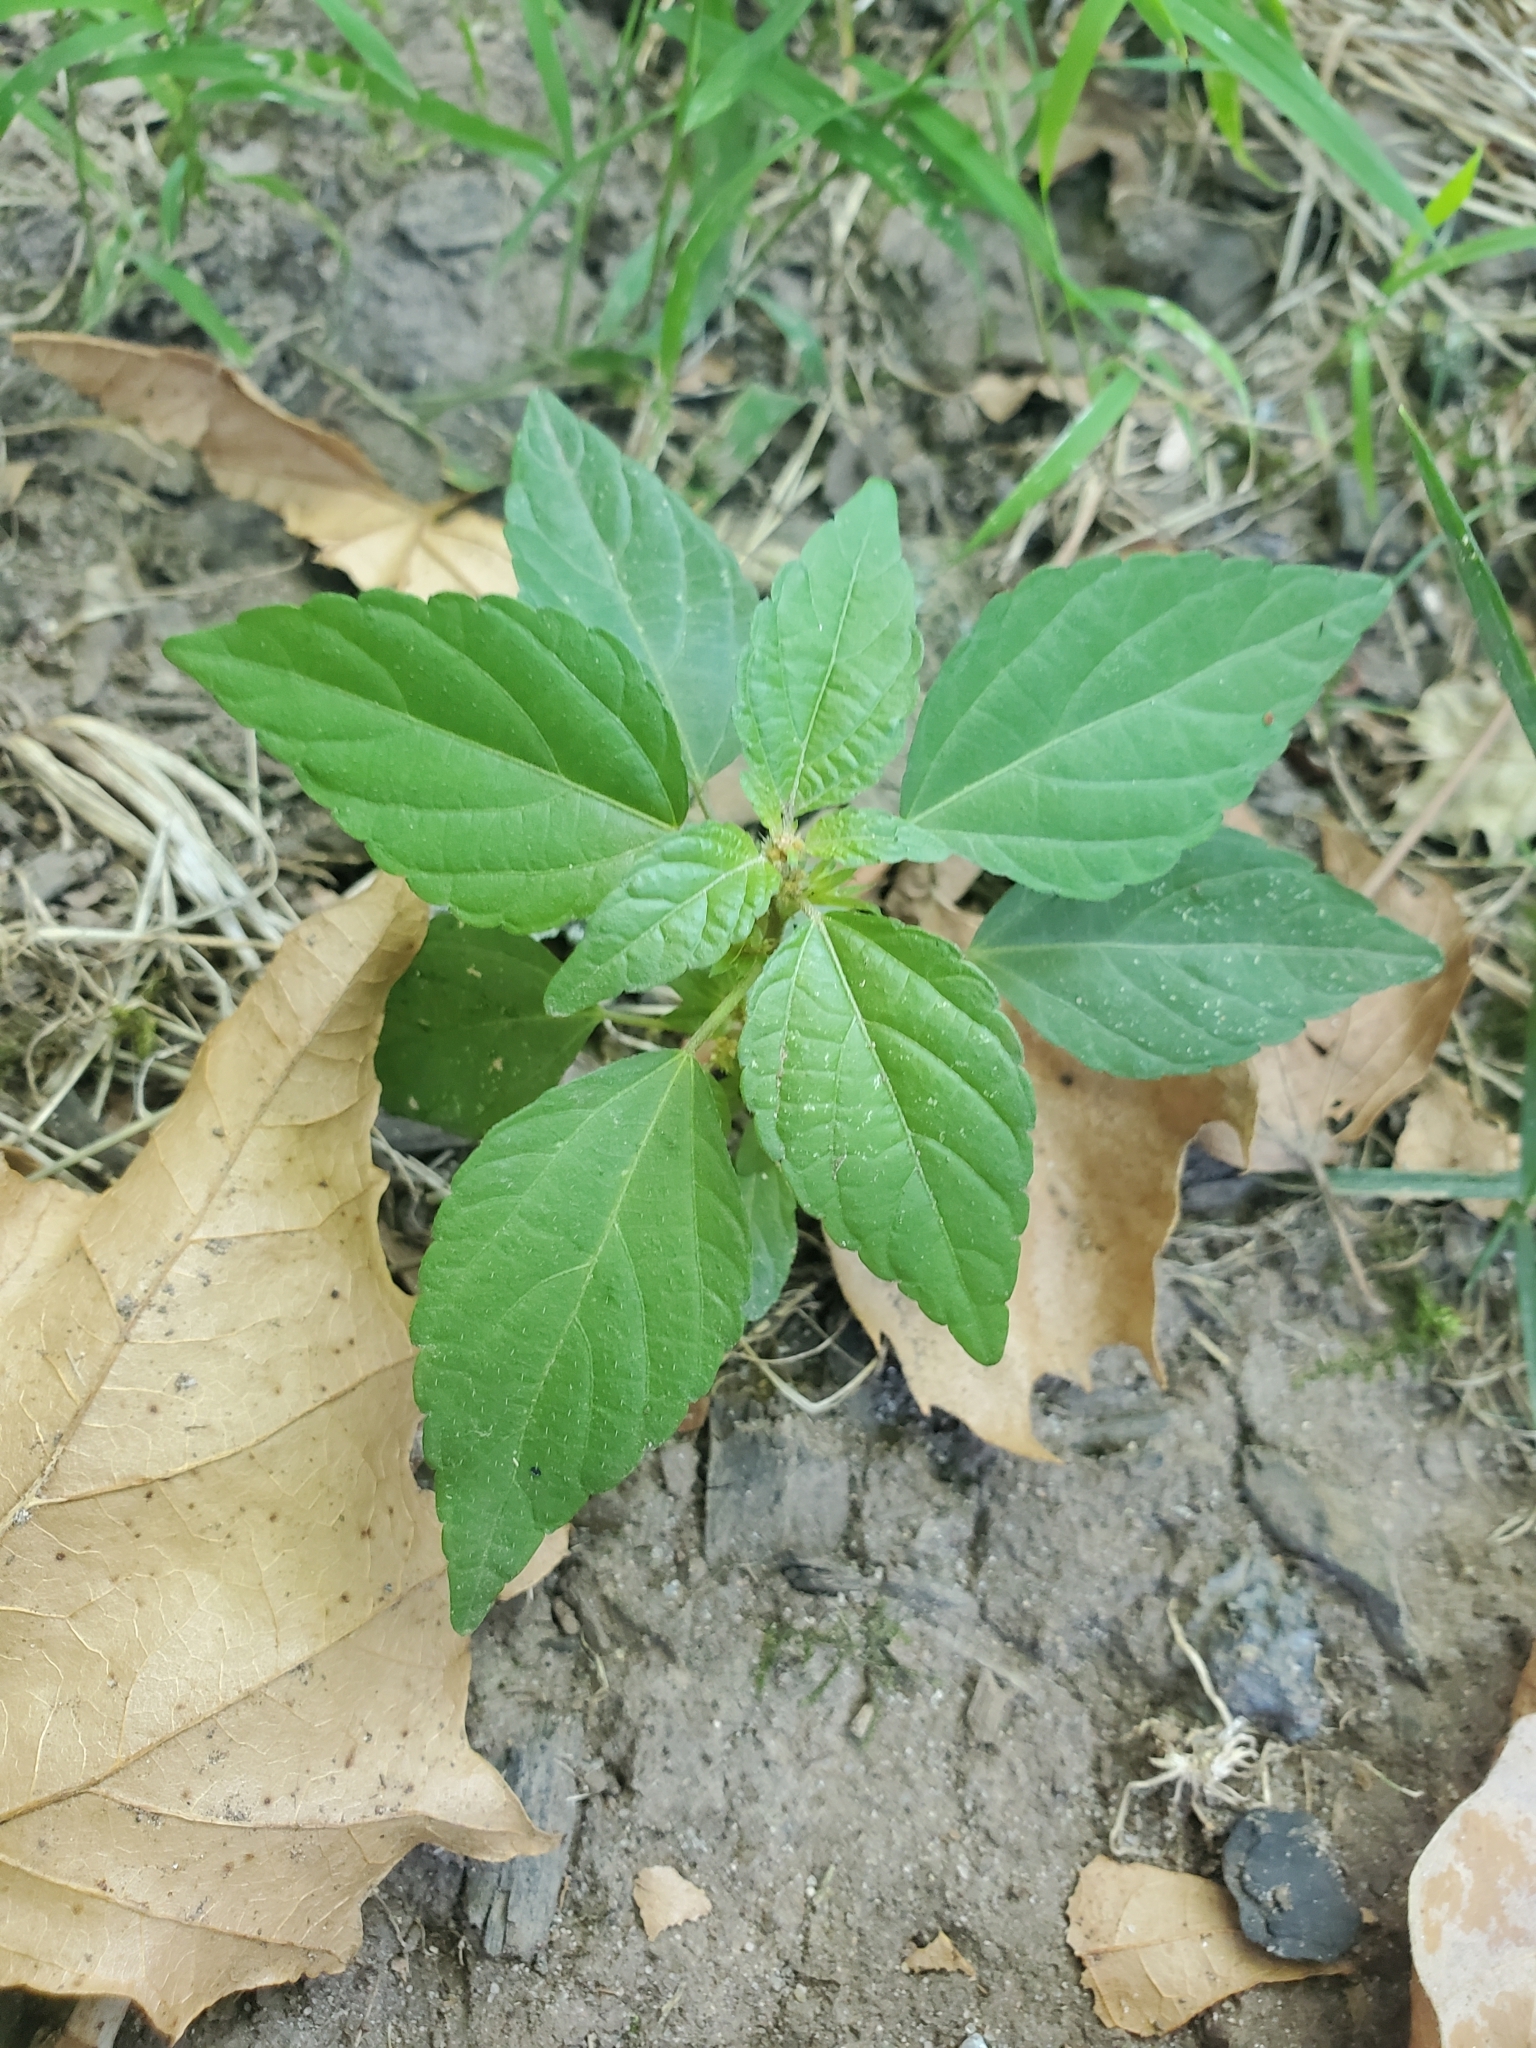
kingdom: Plantae
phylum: Tracheophyta
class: Magnoliopsida
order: Malpighiales
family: Euphorbiaceae
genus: Acalypha
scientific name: Acalypha rhomboidea
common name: Rhombic copperleaf
